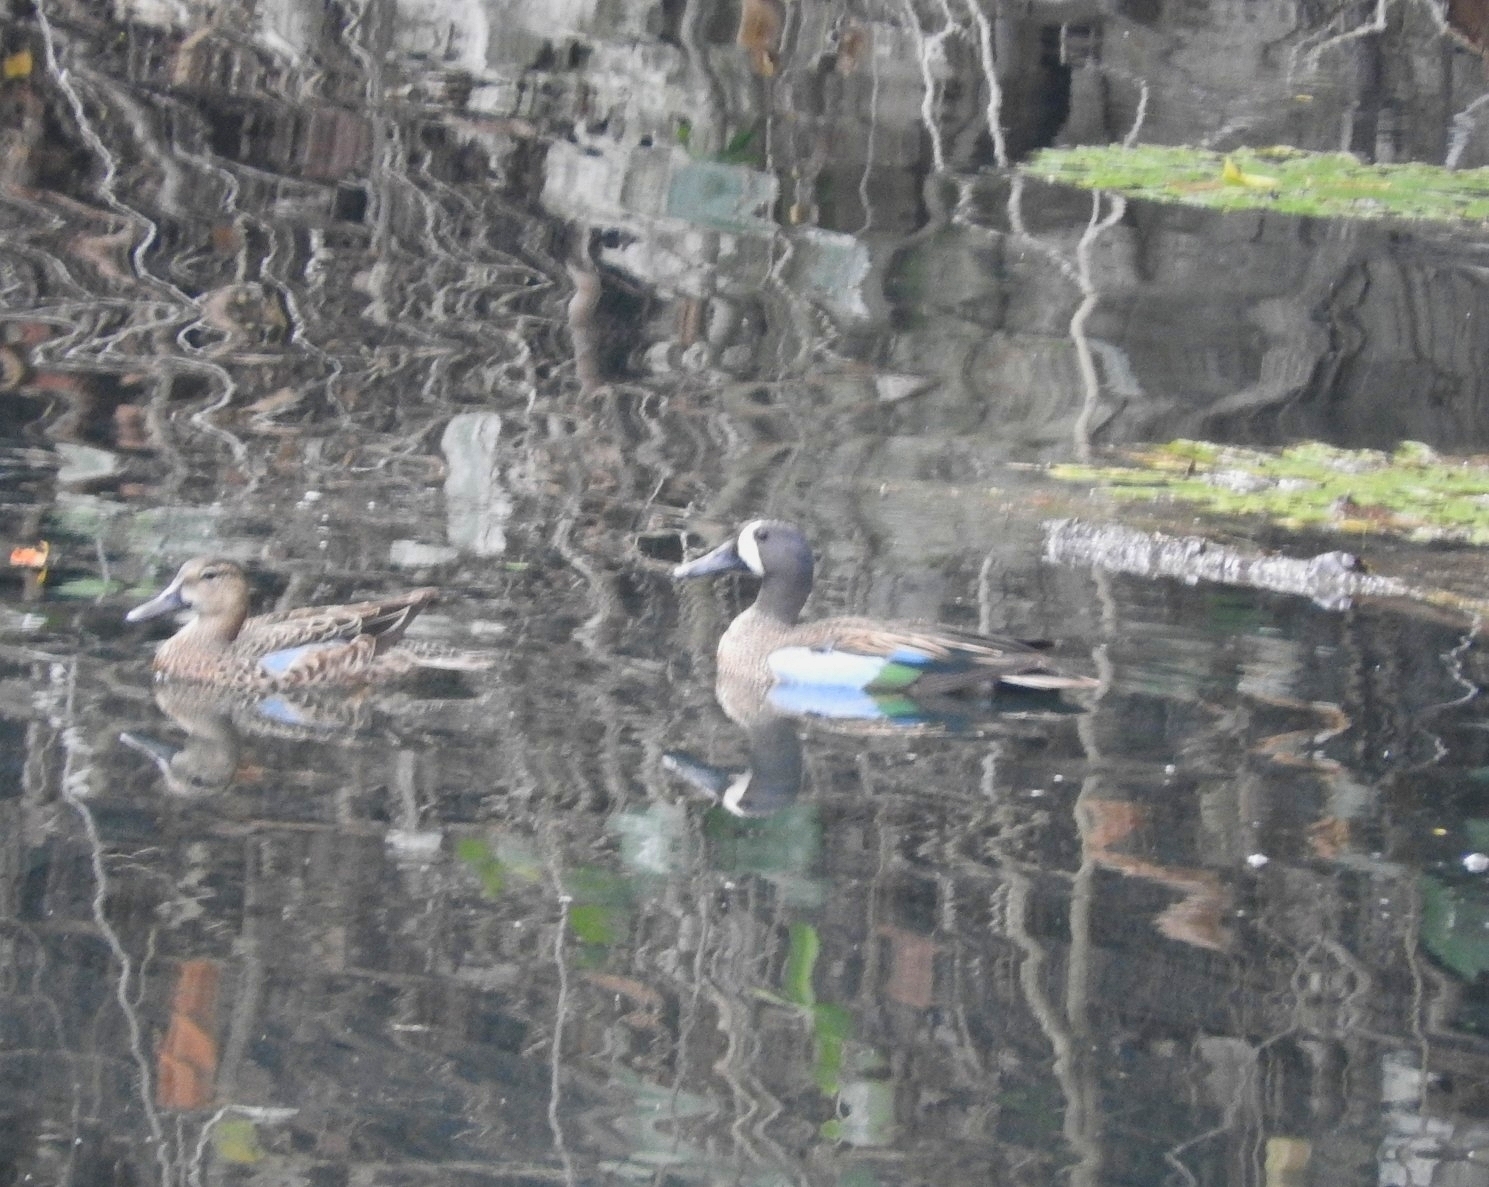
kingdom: Animalia
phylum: Chordata
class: Aves
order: Anseriformes
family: Anatidae
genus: Spatula
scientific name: Spatula discors
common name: Blue-winged teal
